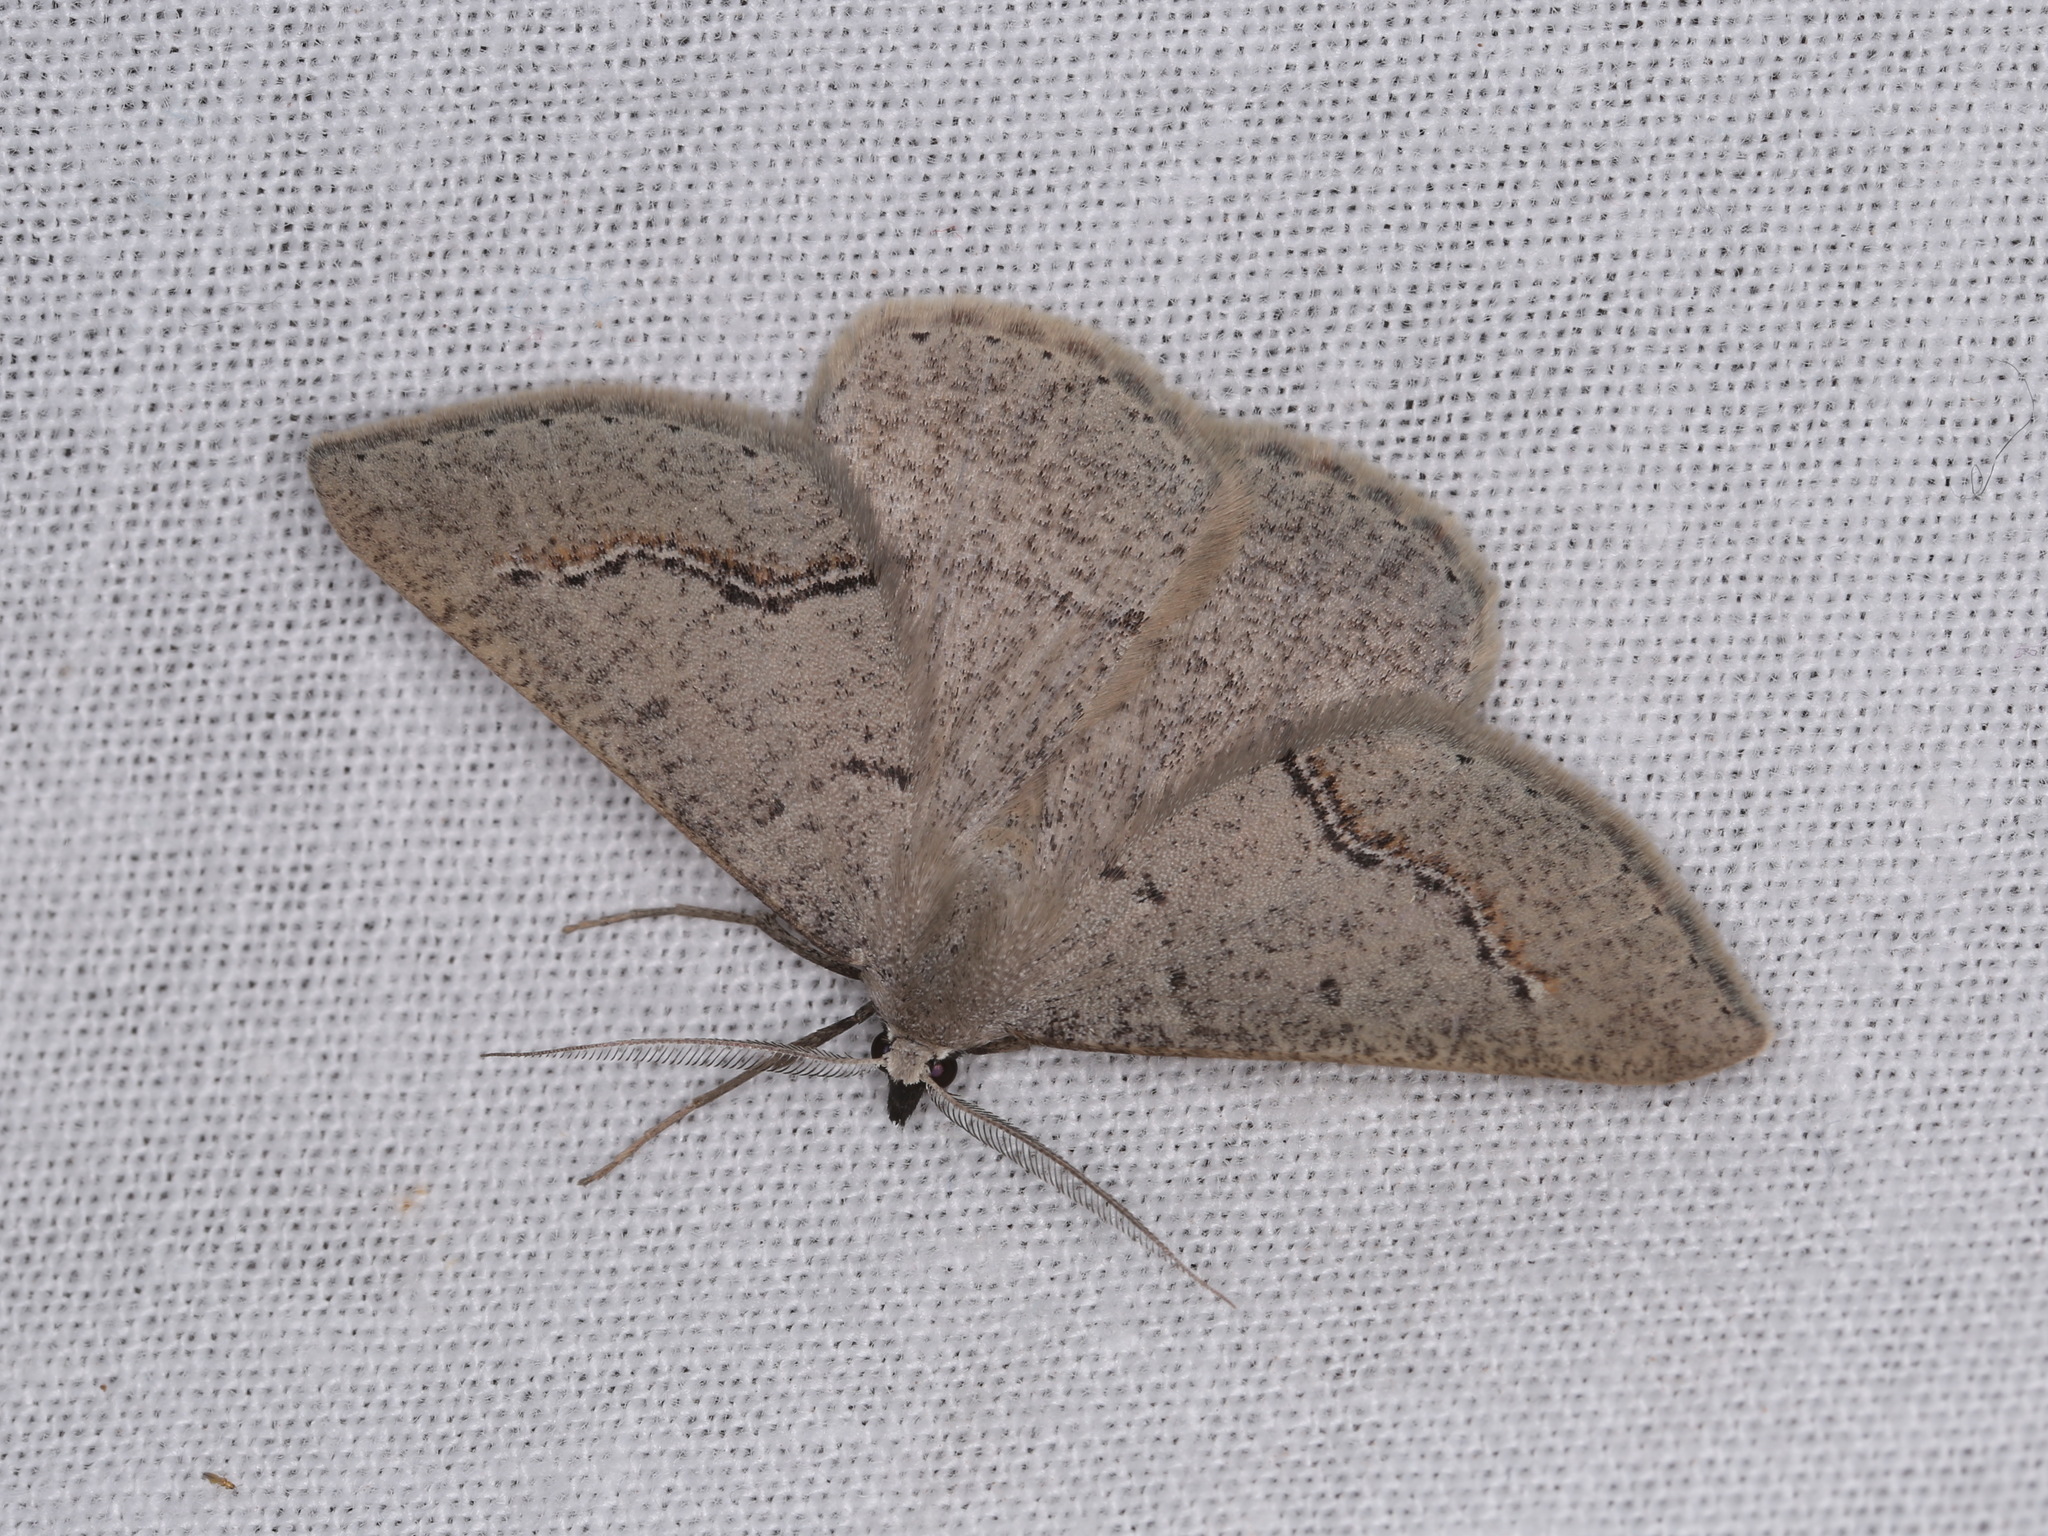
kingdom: Animalia
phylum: Arthropoda
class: Insecta
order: Lepidoptera
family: Geometridae
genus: Nearcha
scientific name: Nearcha dasyzona
